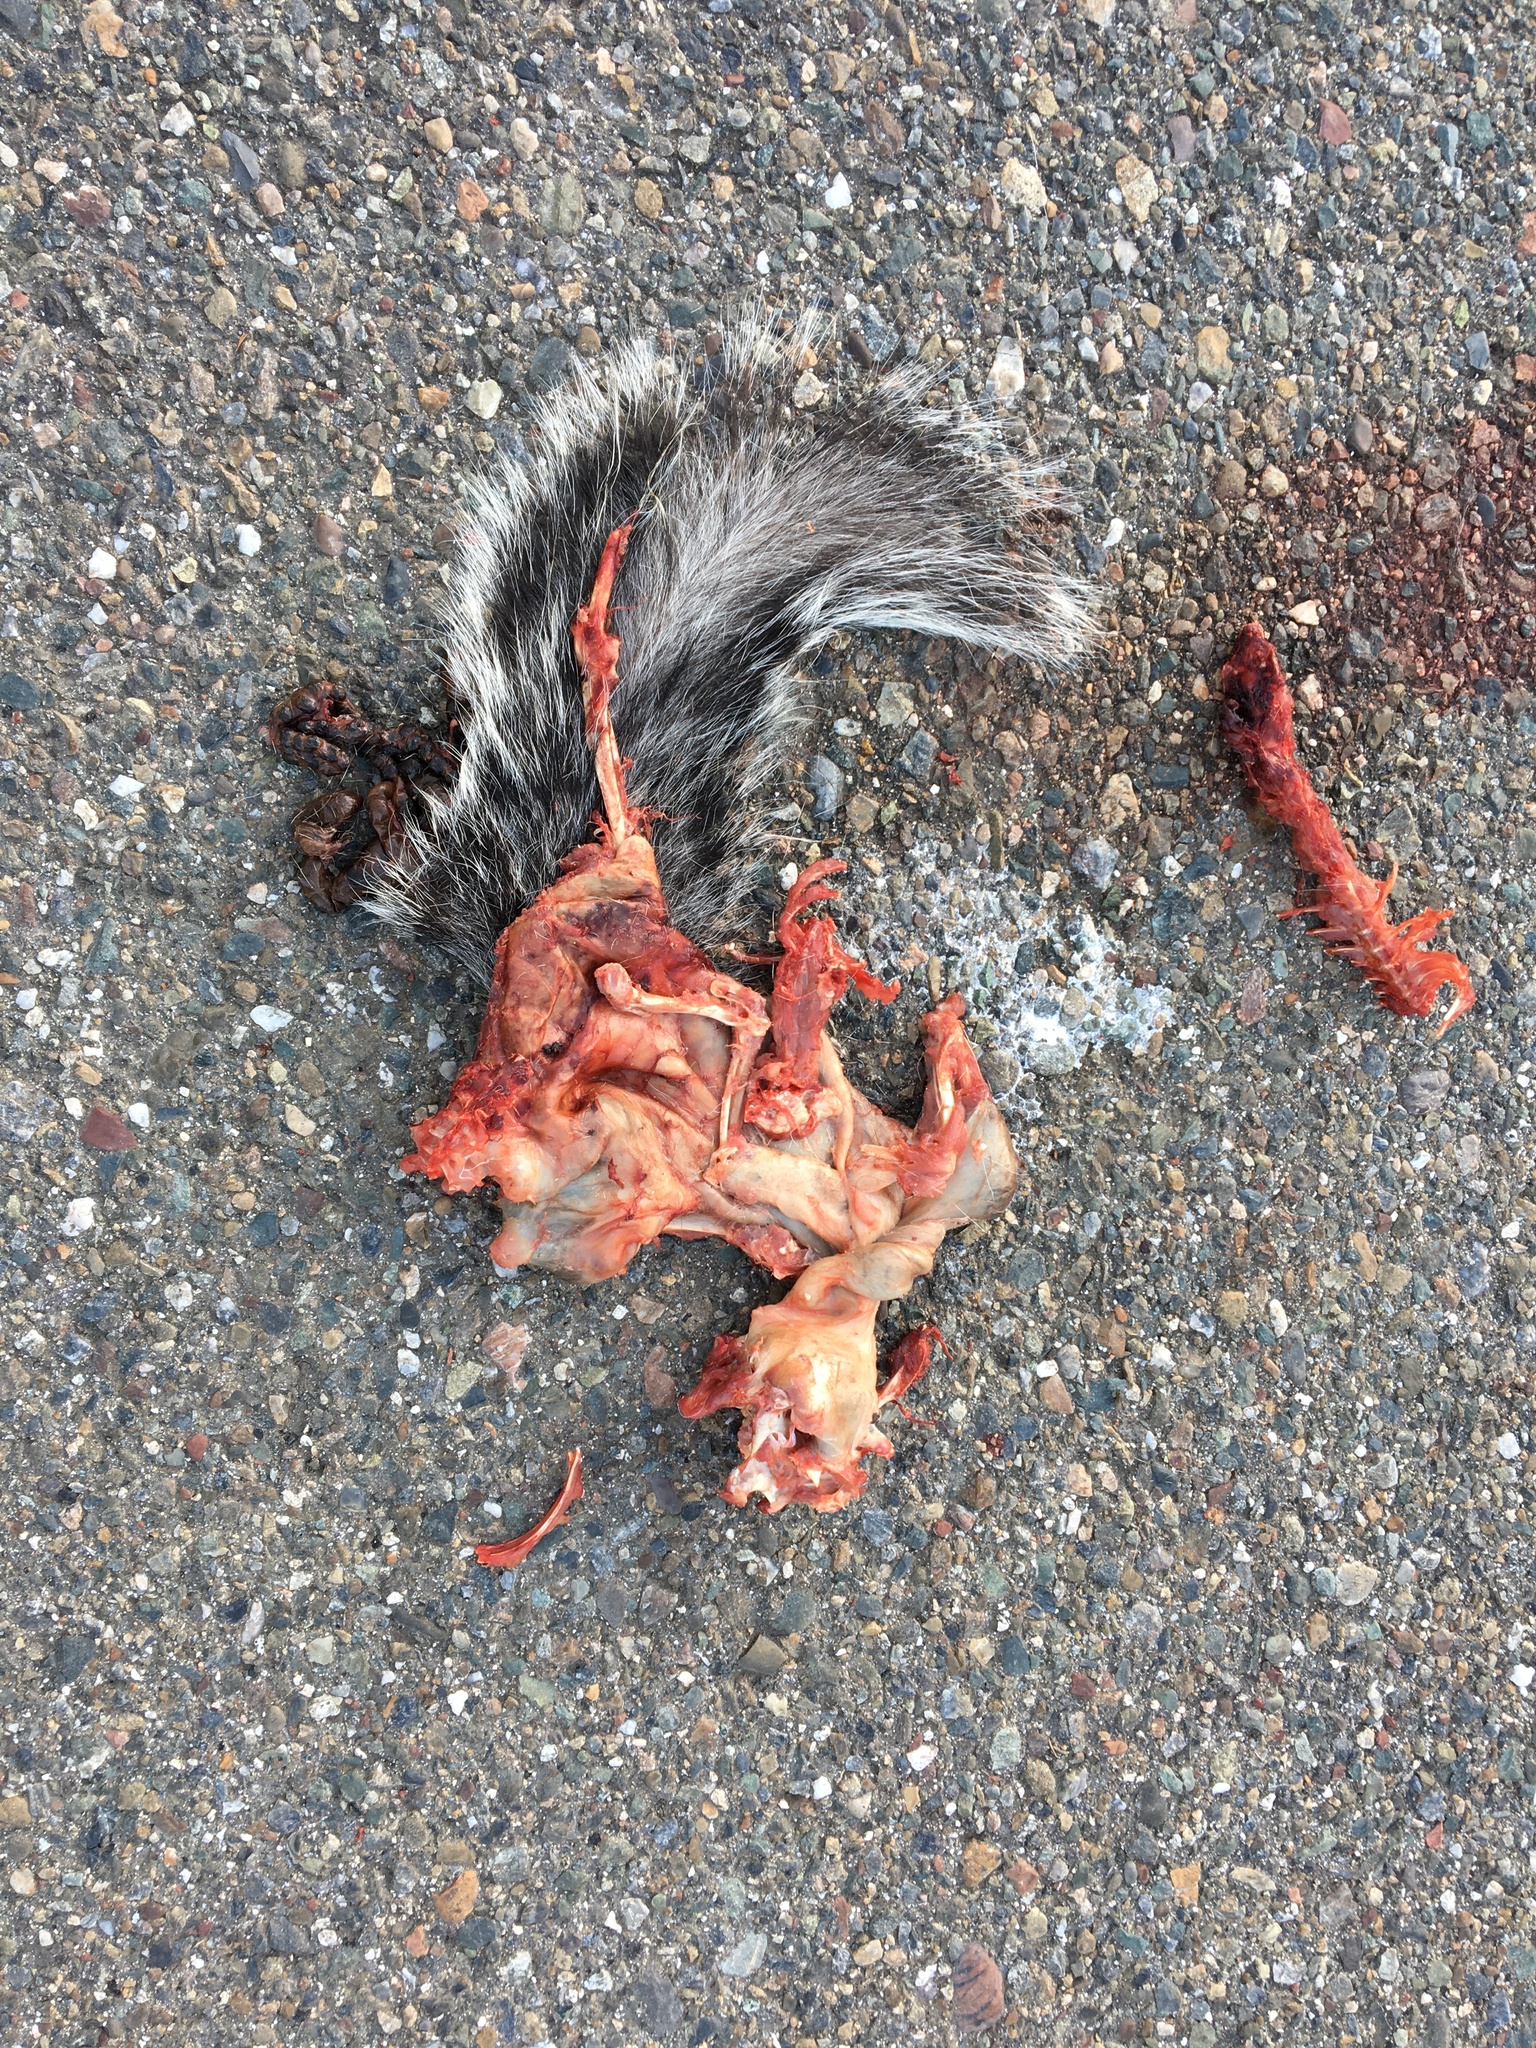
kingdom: Animalia
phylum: Chordata
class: Mammalia
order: Rodentia
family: Sciuridae
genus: Sciurus
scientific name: Sciurus griseus
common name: Western gray squirrel
